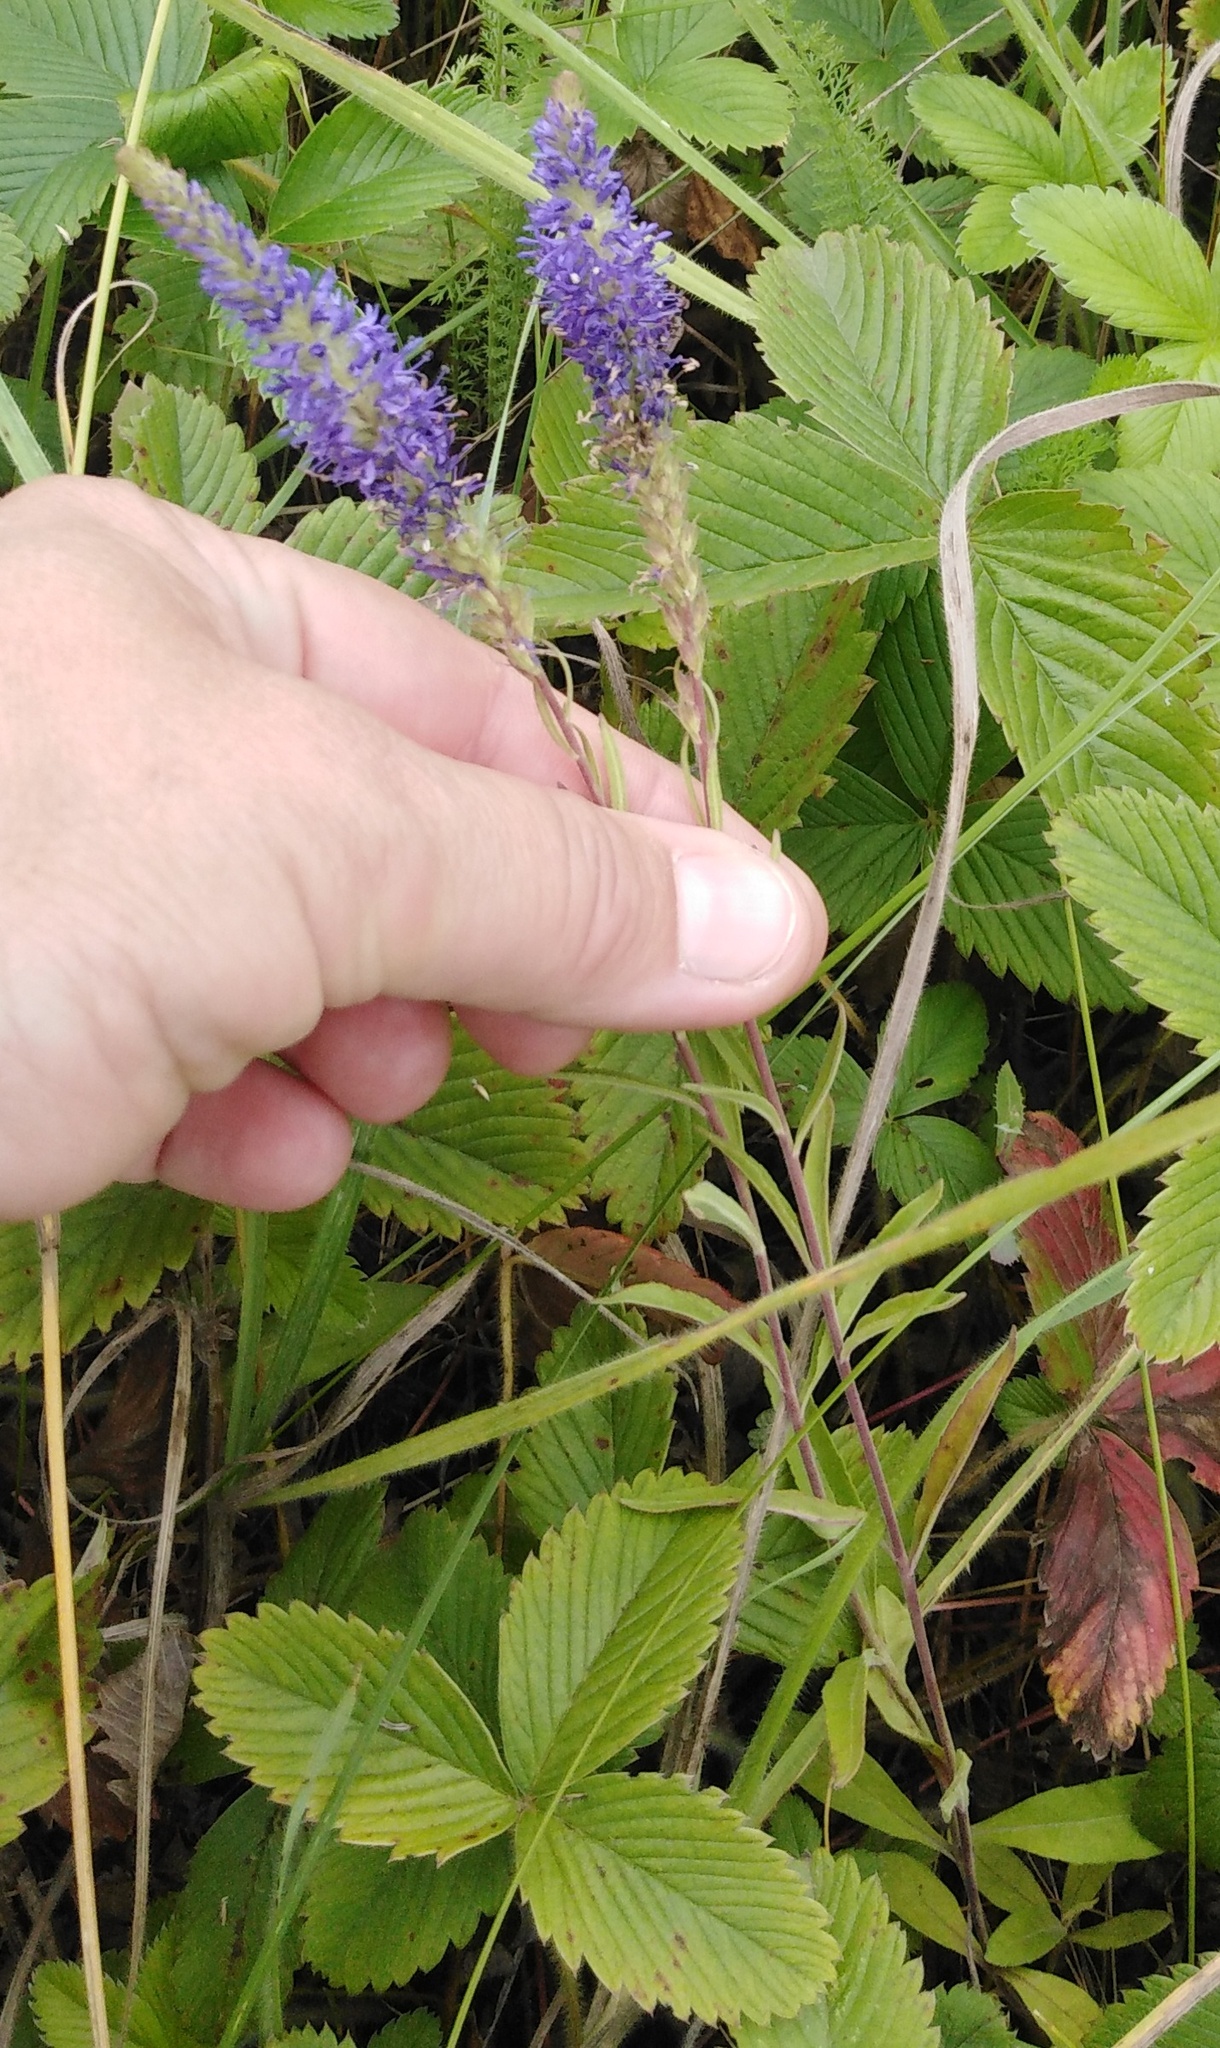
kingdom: Plantae
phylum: Tracheophyta
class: Magnoliopsida
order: Lamiales
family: Plantaginaceae
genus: Veronica
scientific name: Veronica spicata
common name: Spiked speedwell
